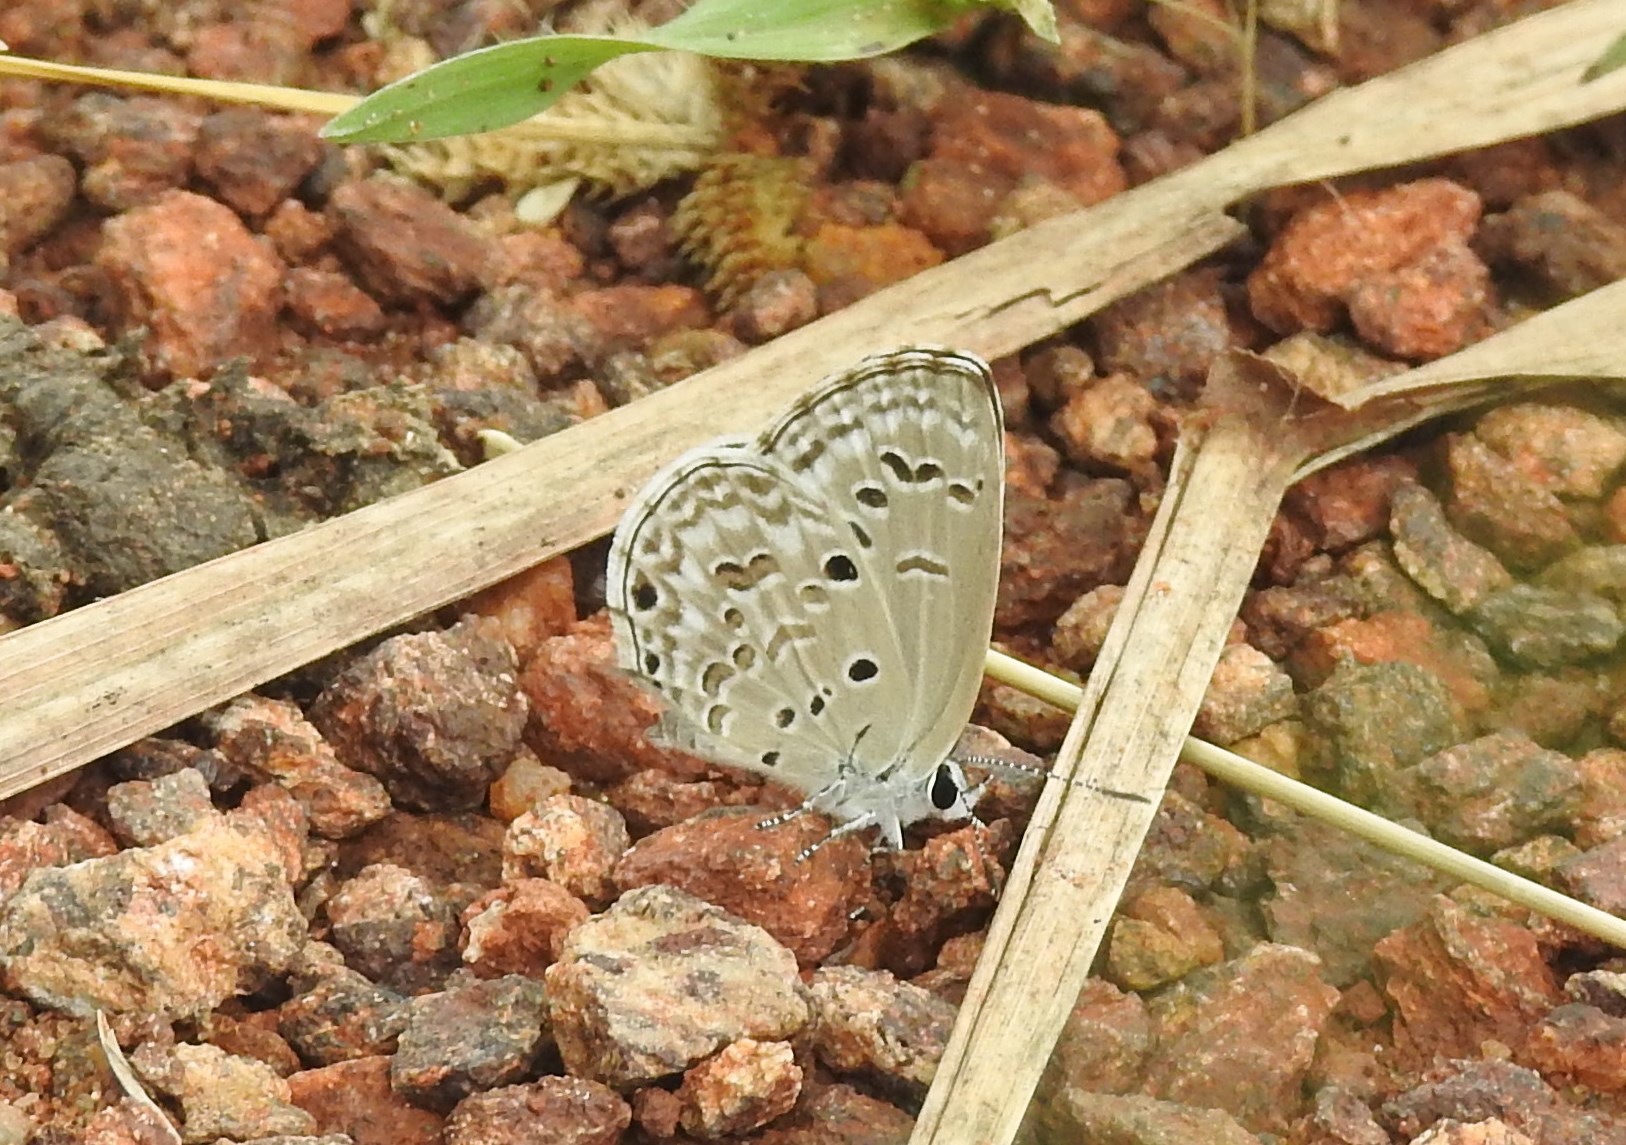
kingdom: Animalia
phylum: Arthropoda
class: Insecta
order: Lepidoptera
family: Lycaenidae
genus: Chilades
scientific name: Chilades laius
